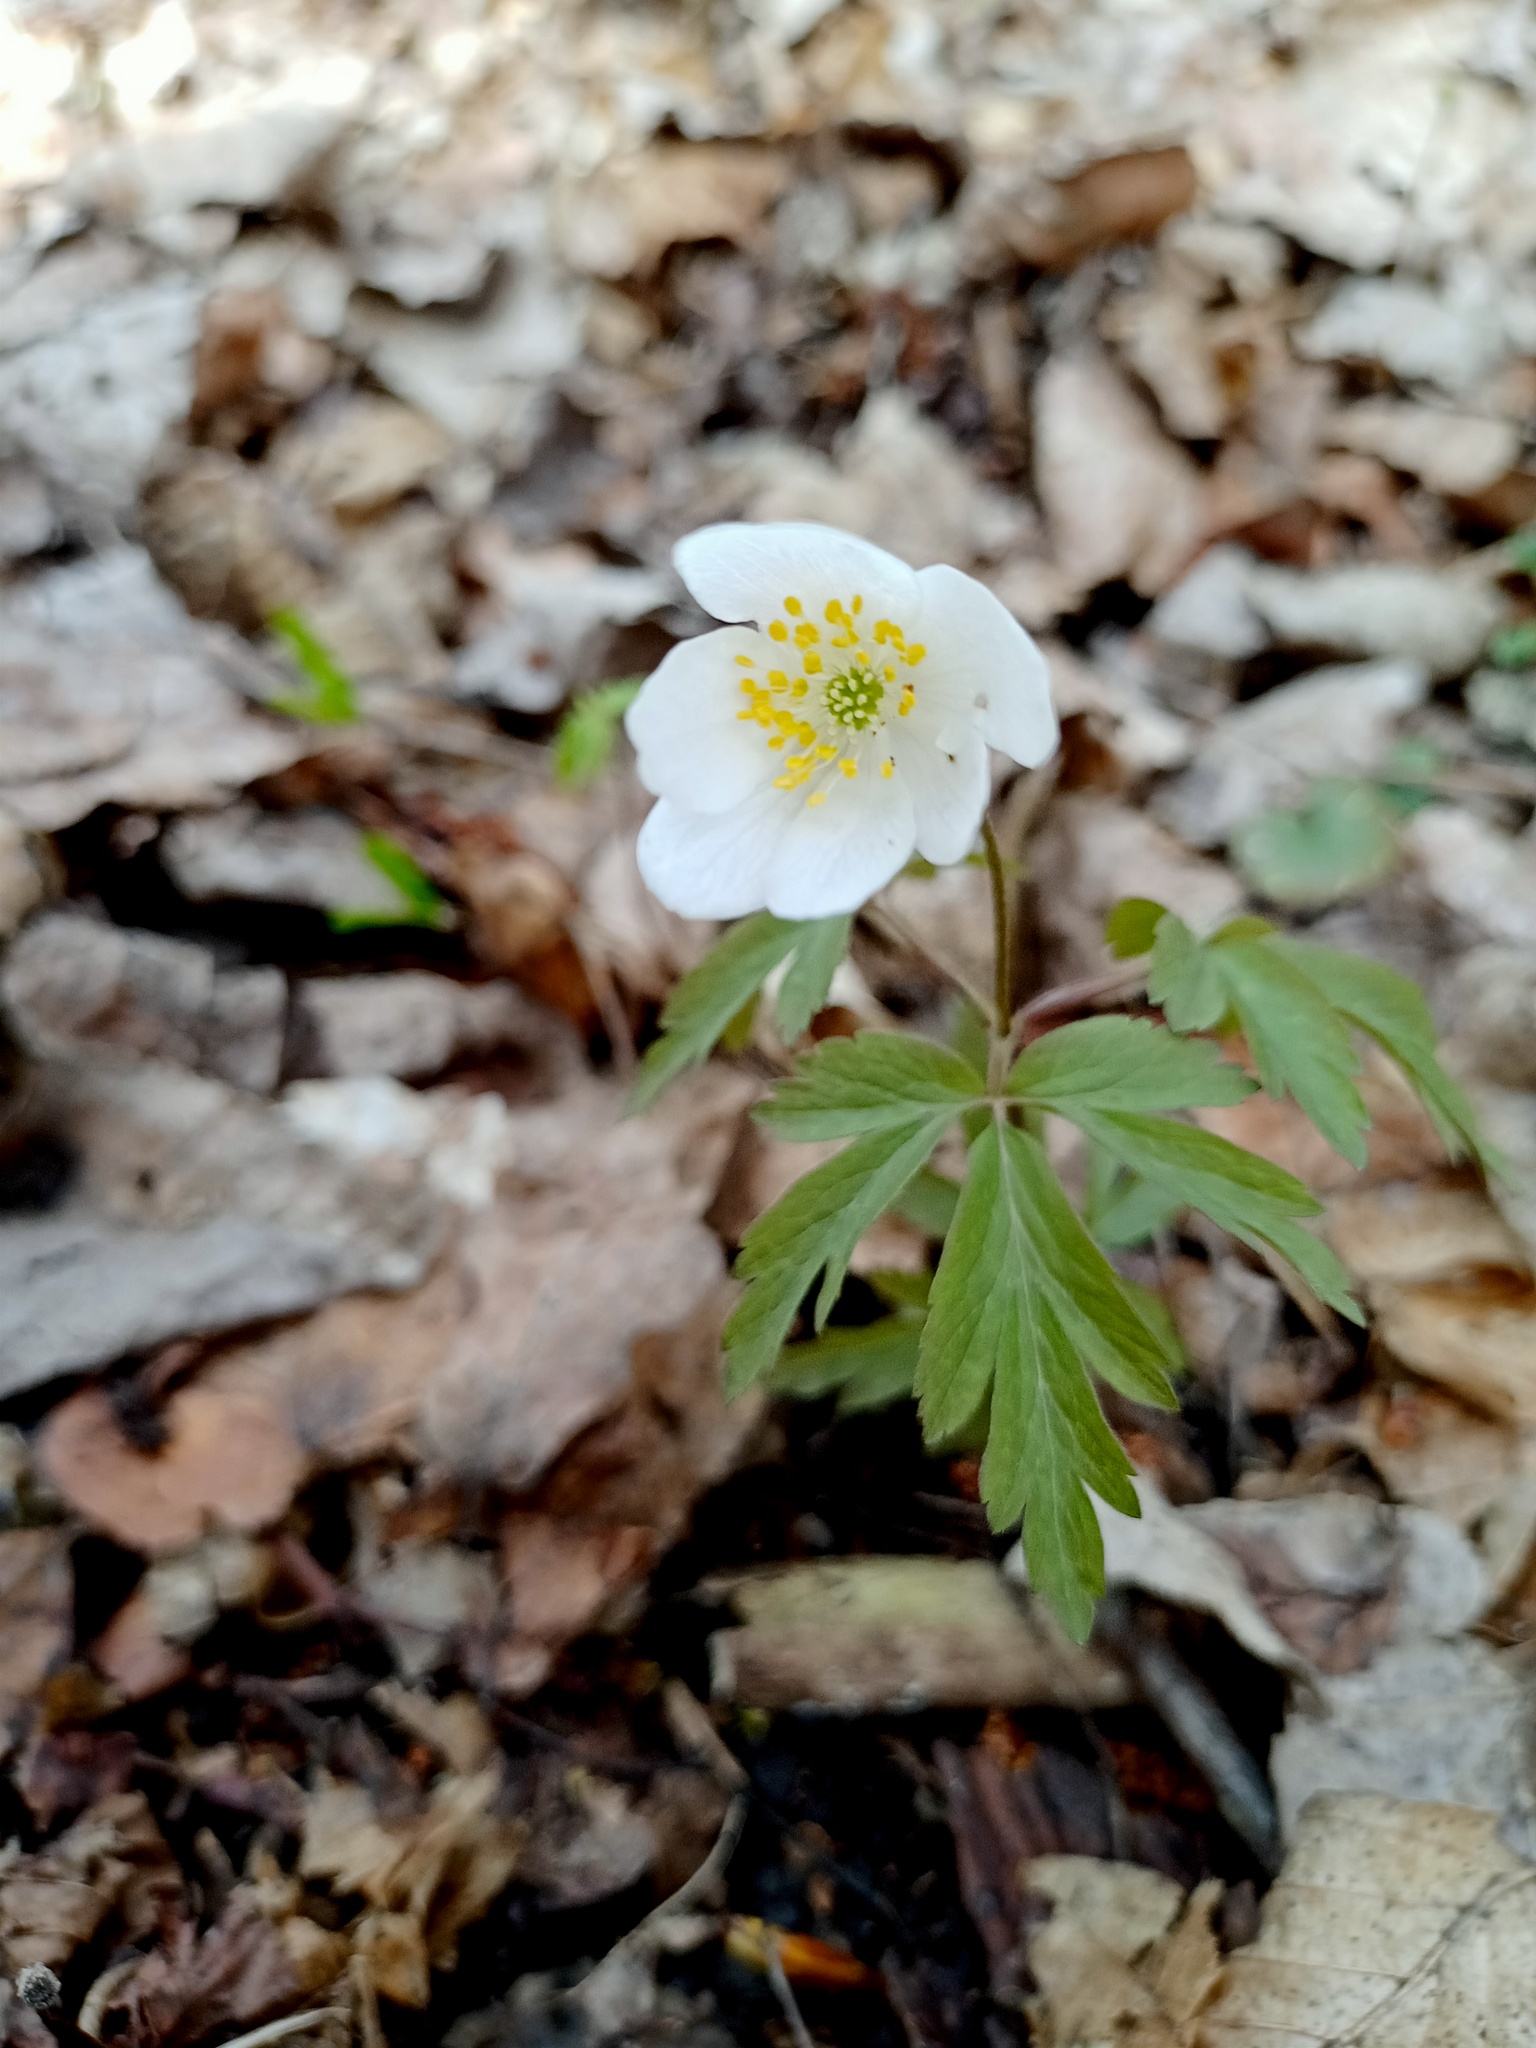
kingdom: Plantae
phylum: Tracheophyta
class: Magnoliopsida
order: Ranunculales
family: Ranunculaceae
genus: Anemone
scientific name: Anemone nemorosa
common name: Wood anemone
